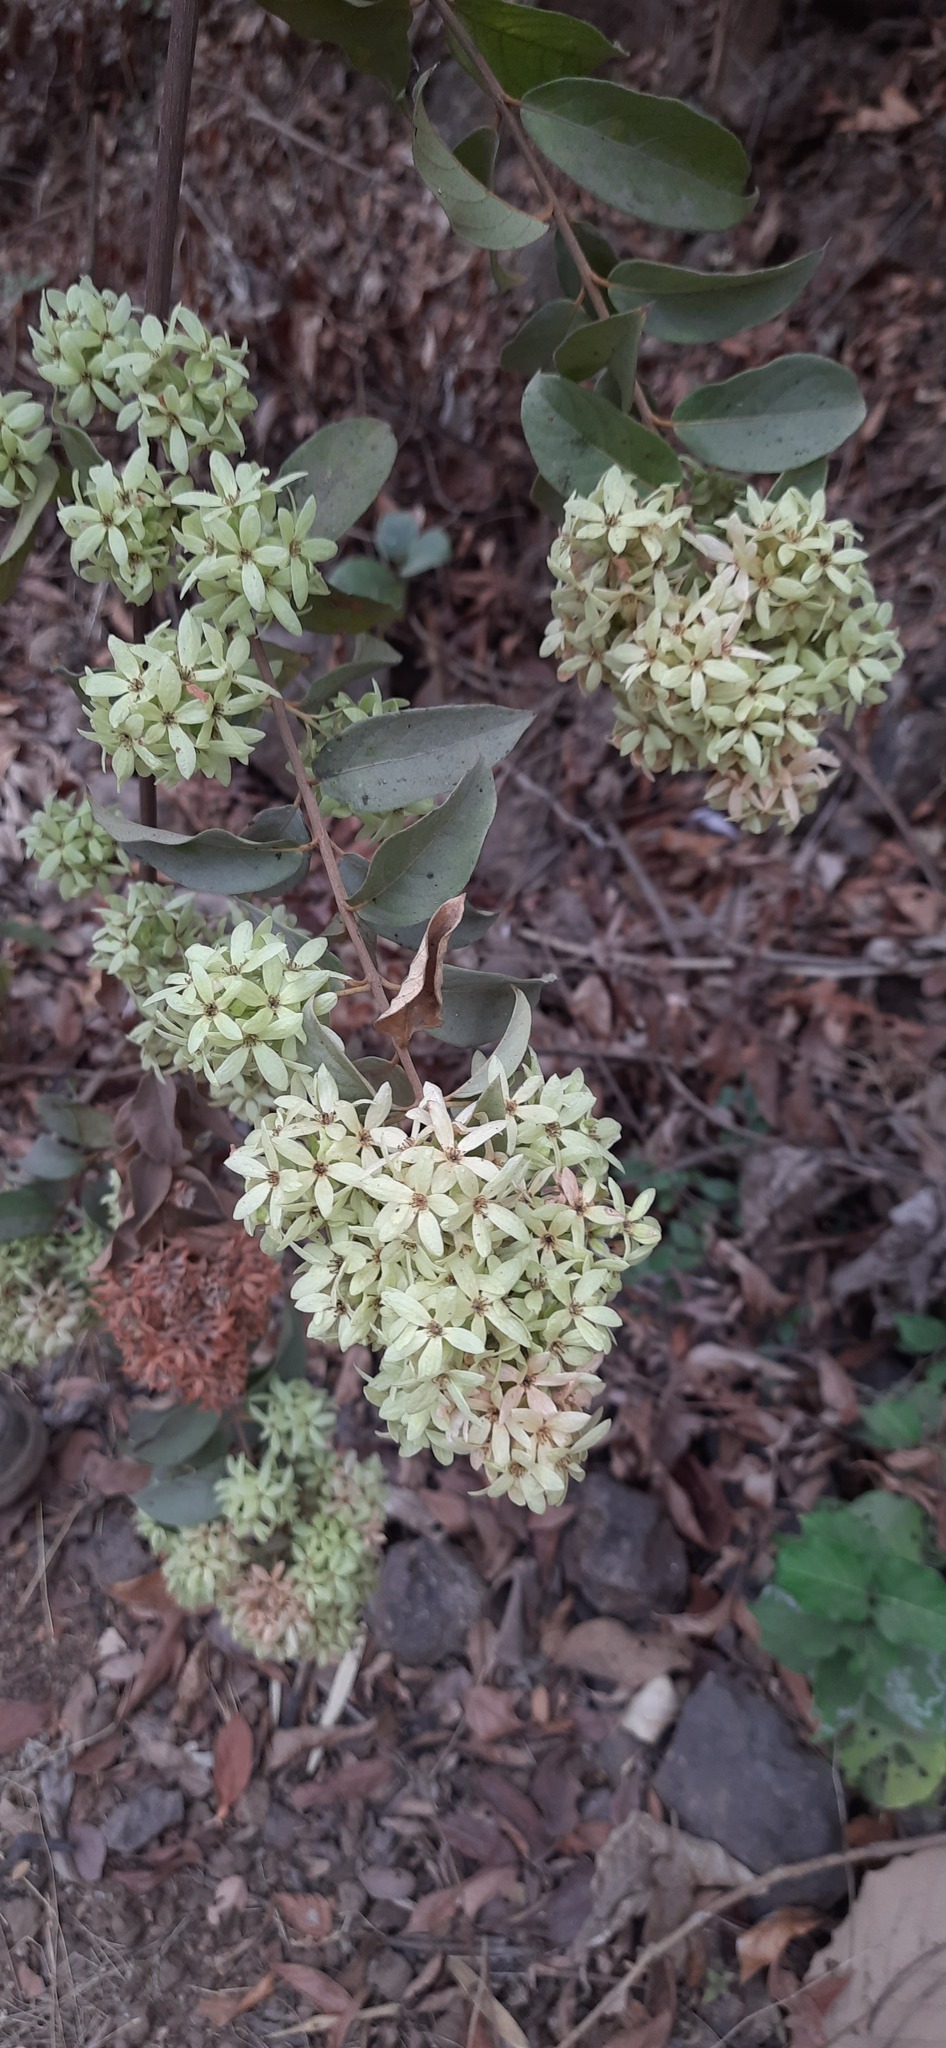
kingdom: Plantae
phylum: Tracheophyta
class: Magnoliopsida
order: Myrtales
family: Combretaceae
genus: Getonia
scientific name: Getonia floribunda
